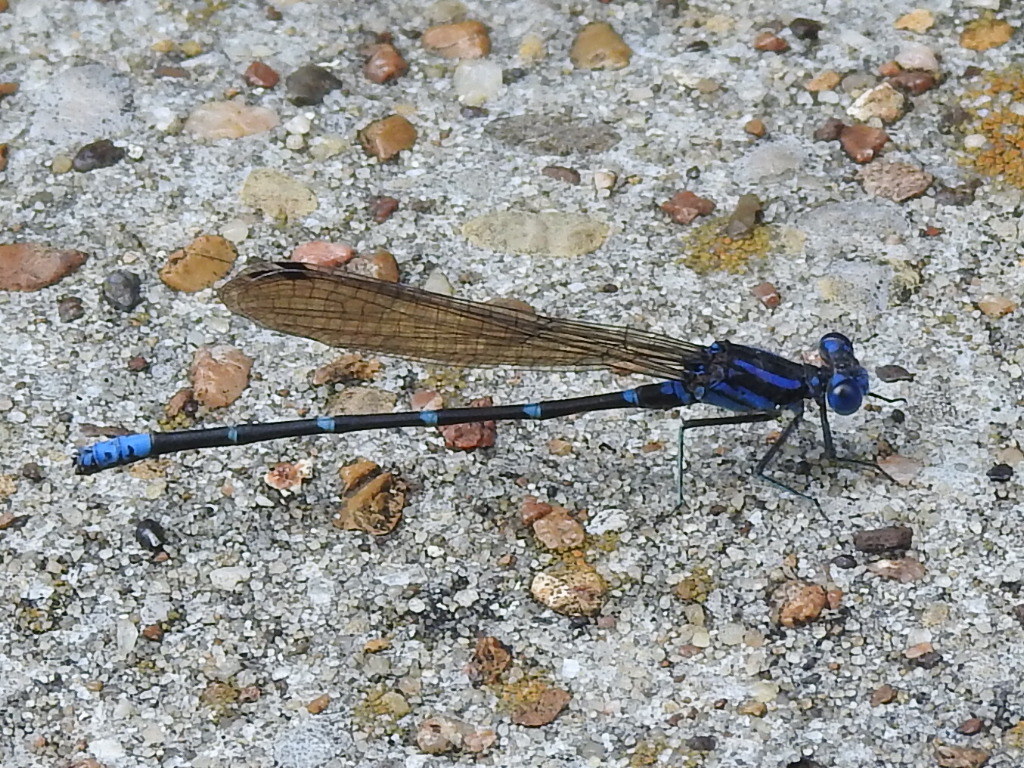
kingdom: Animalia
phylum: Arthropoda
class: Insecta
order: Odonata
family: Coenagrionidae
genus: Argia
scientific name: Argia sedula
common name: Blue-ringed dancer
